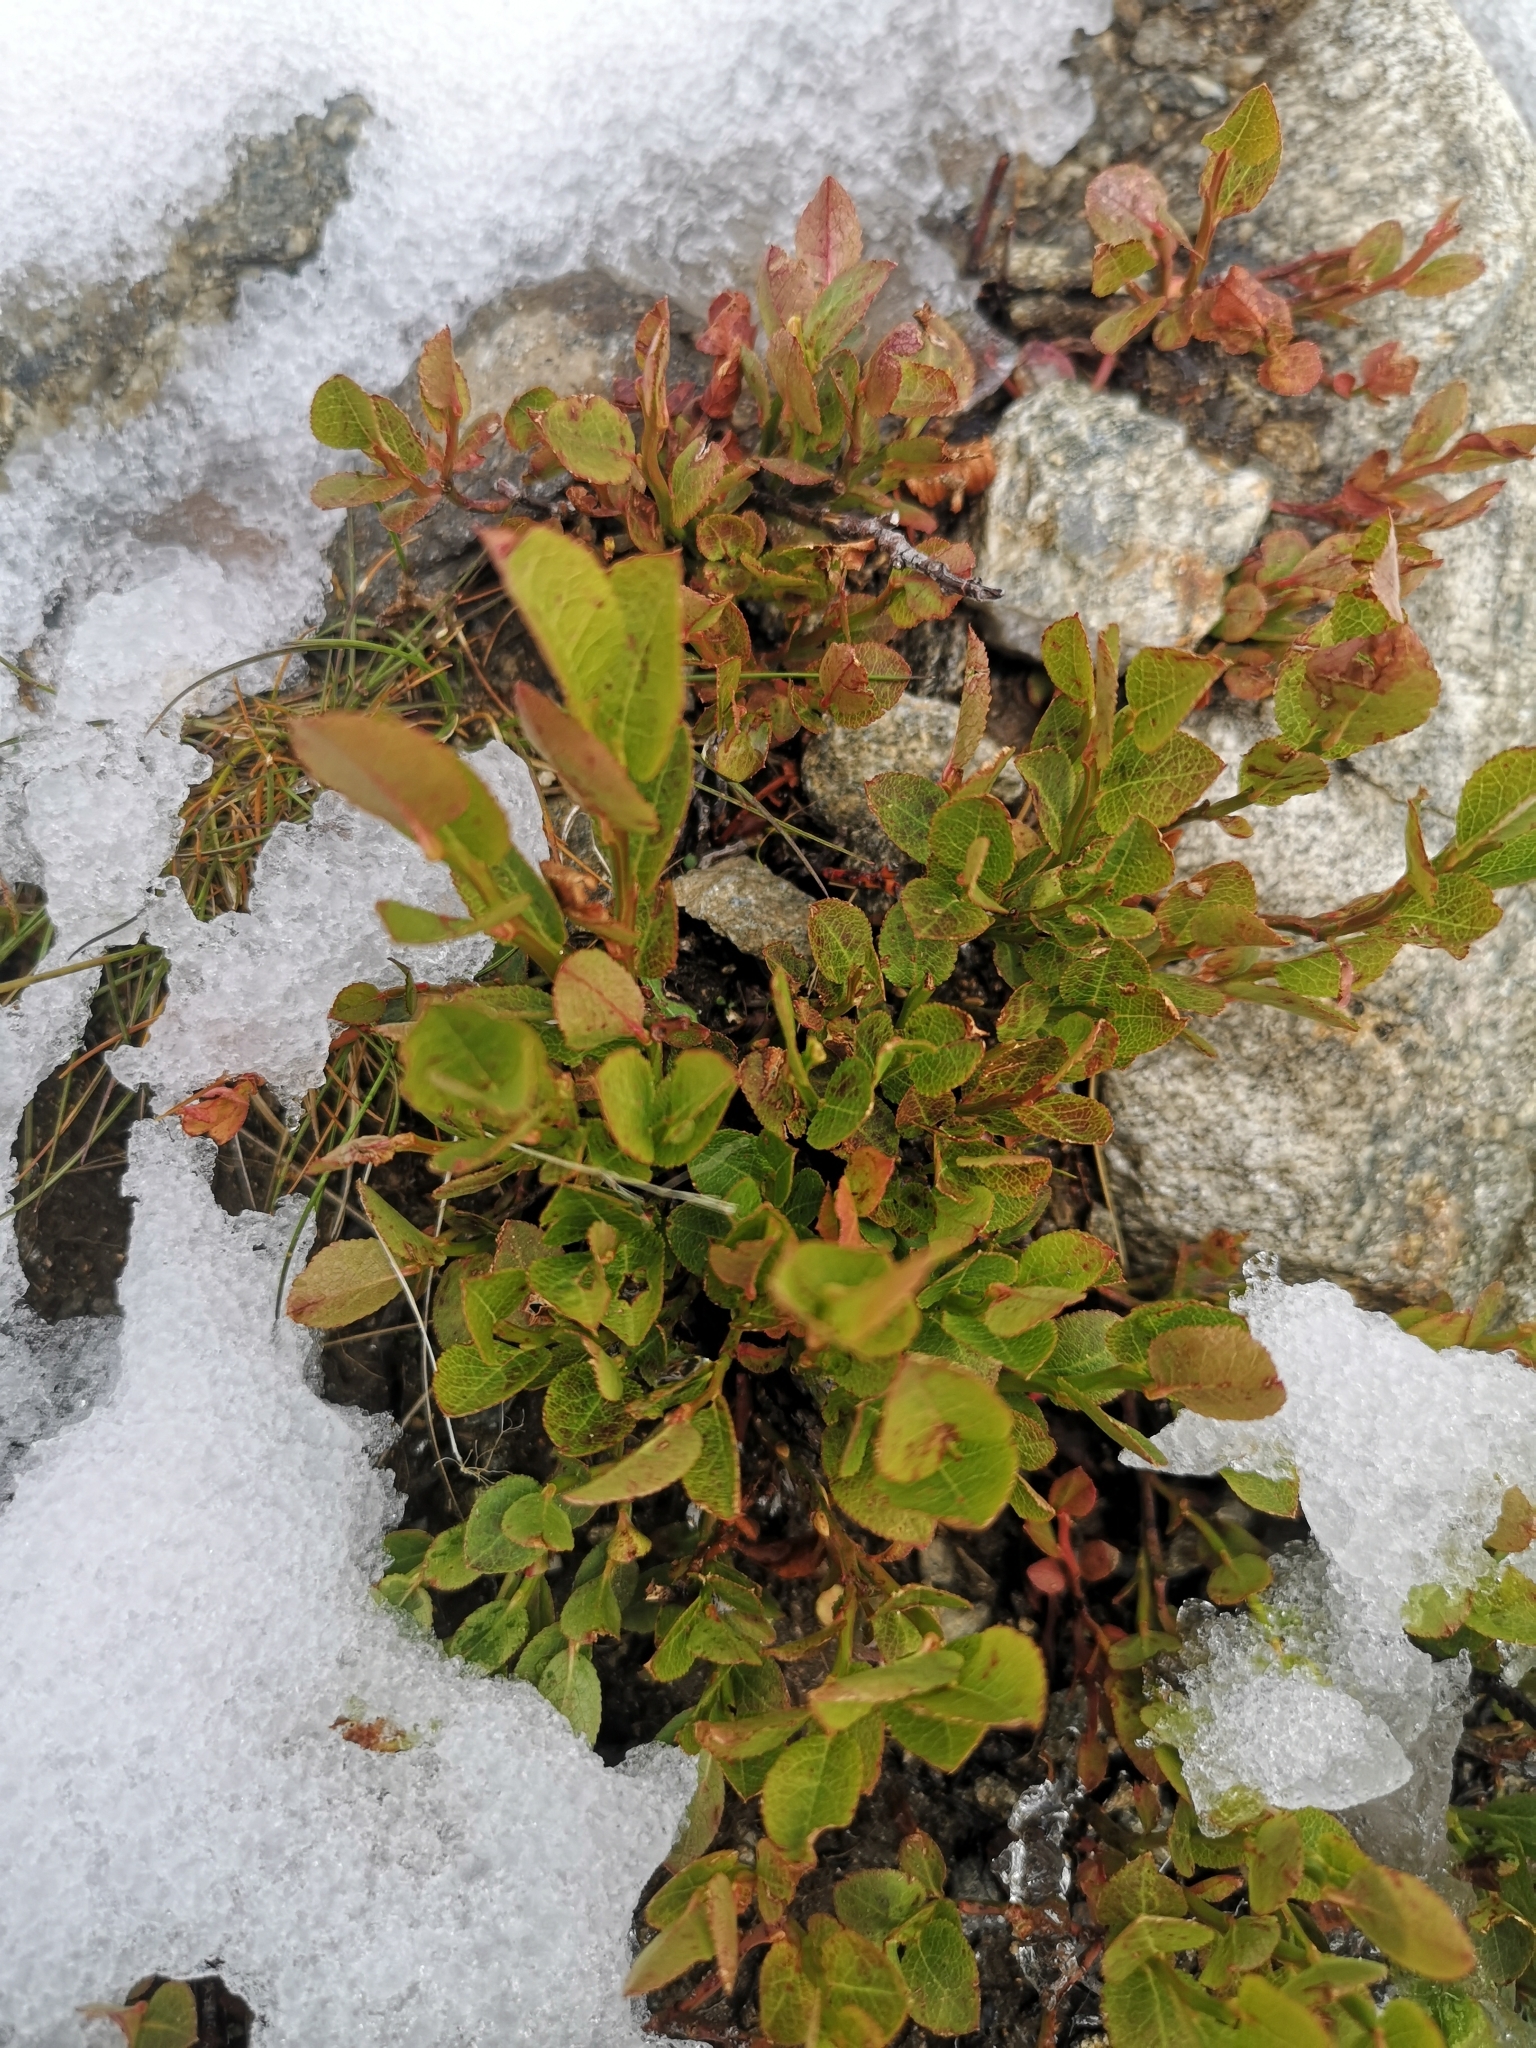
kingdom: Plantae
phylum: Tracheophyta
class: Magnoliopsida
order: Ericales
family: Ericaceae
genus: Vaccinium
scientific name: Vaccinium myrtillus
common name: Bilberry
